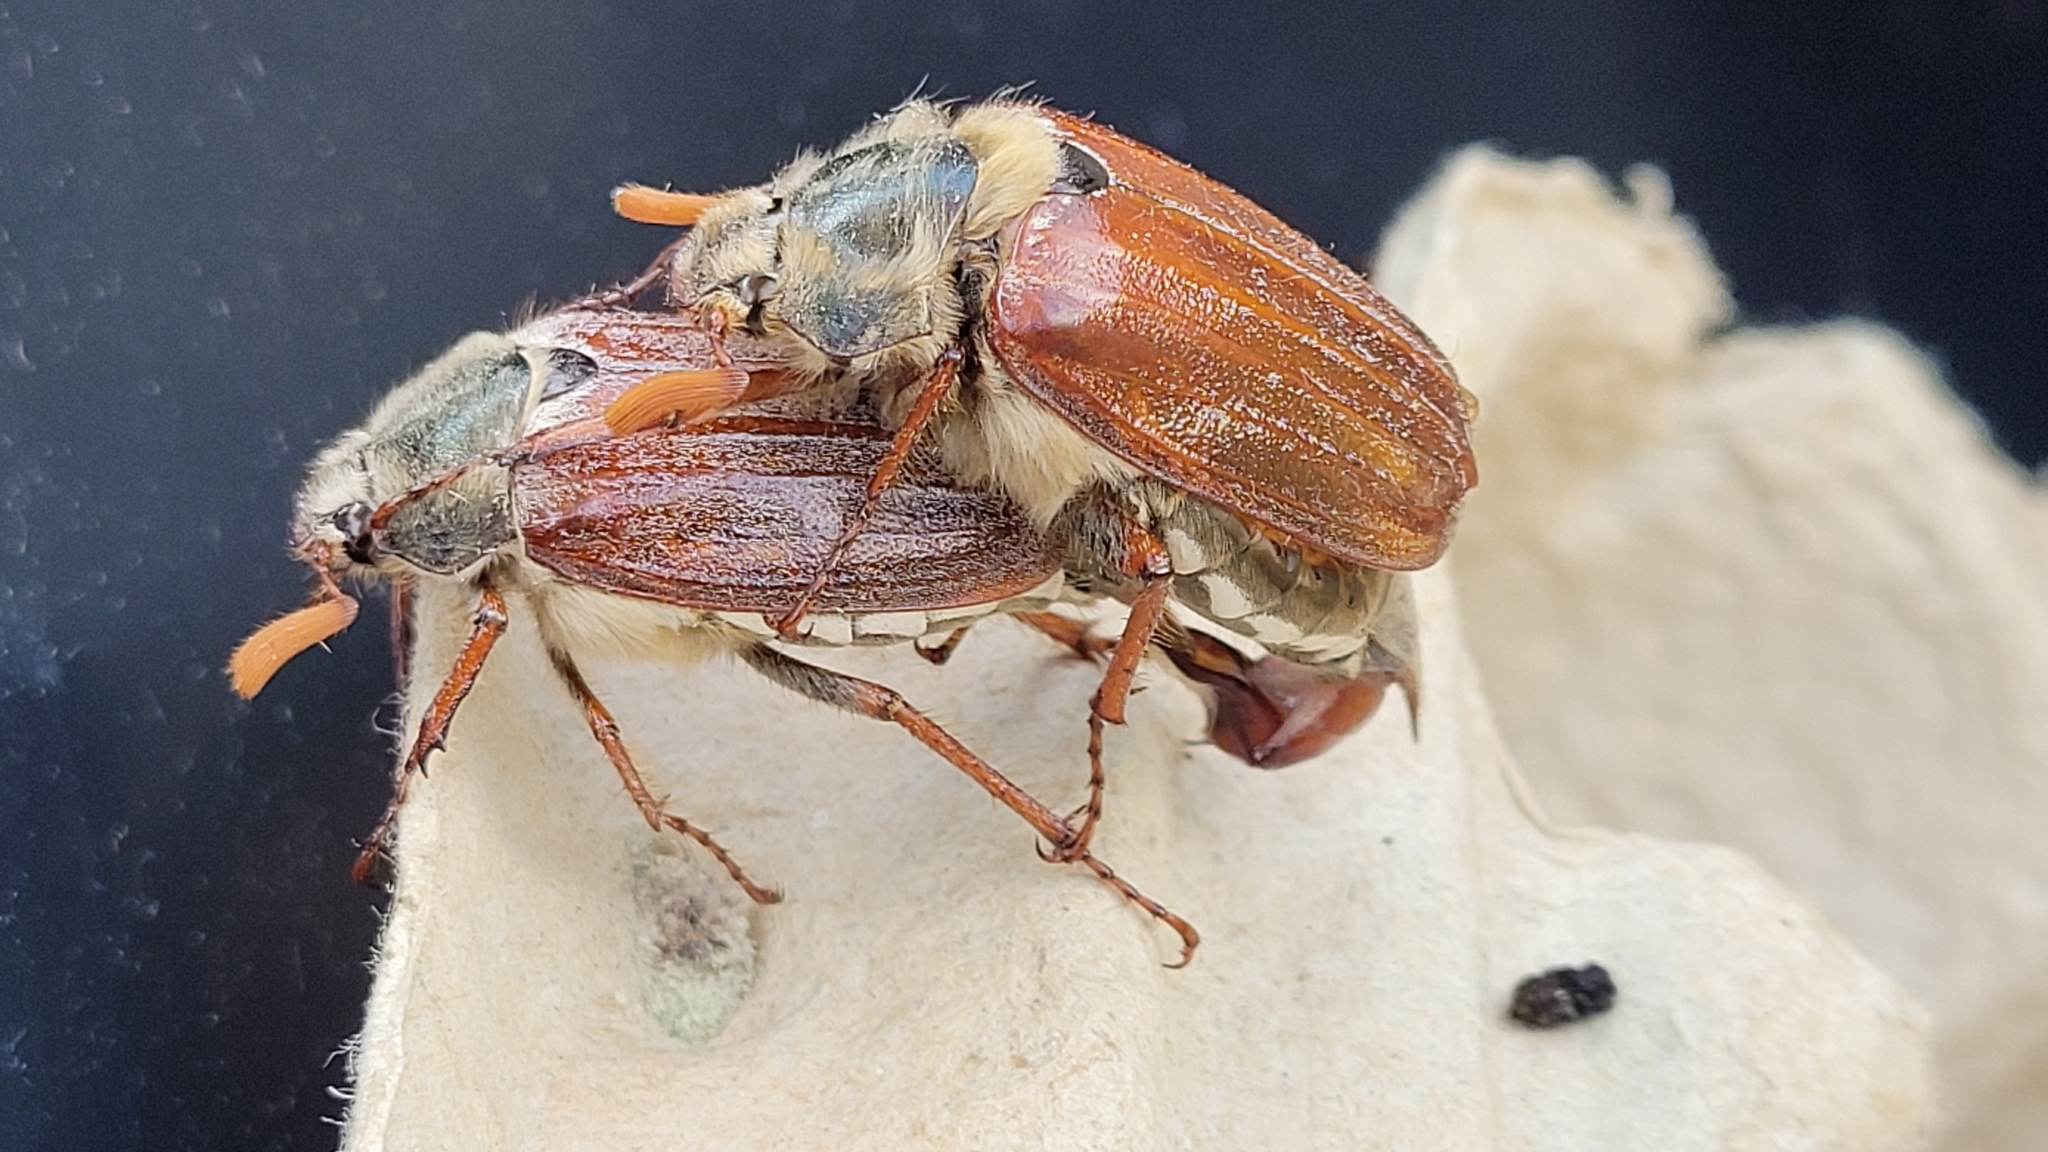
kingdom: Animalia
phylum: Arthropoda
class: Insecta
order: Coleoptera
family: Scarabaeidae
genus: Melolontha
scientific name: Melolontha melolontha
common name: Cockchafer maybeetle
